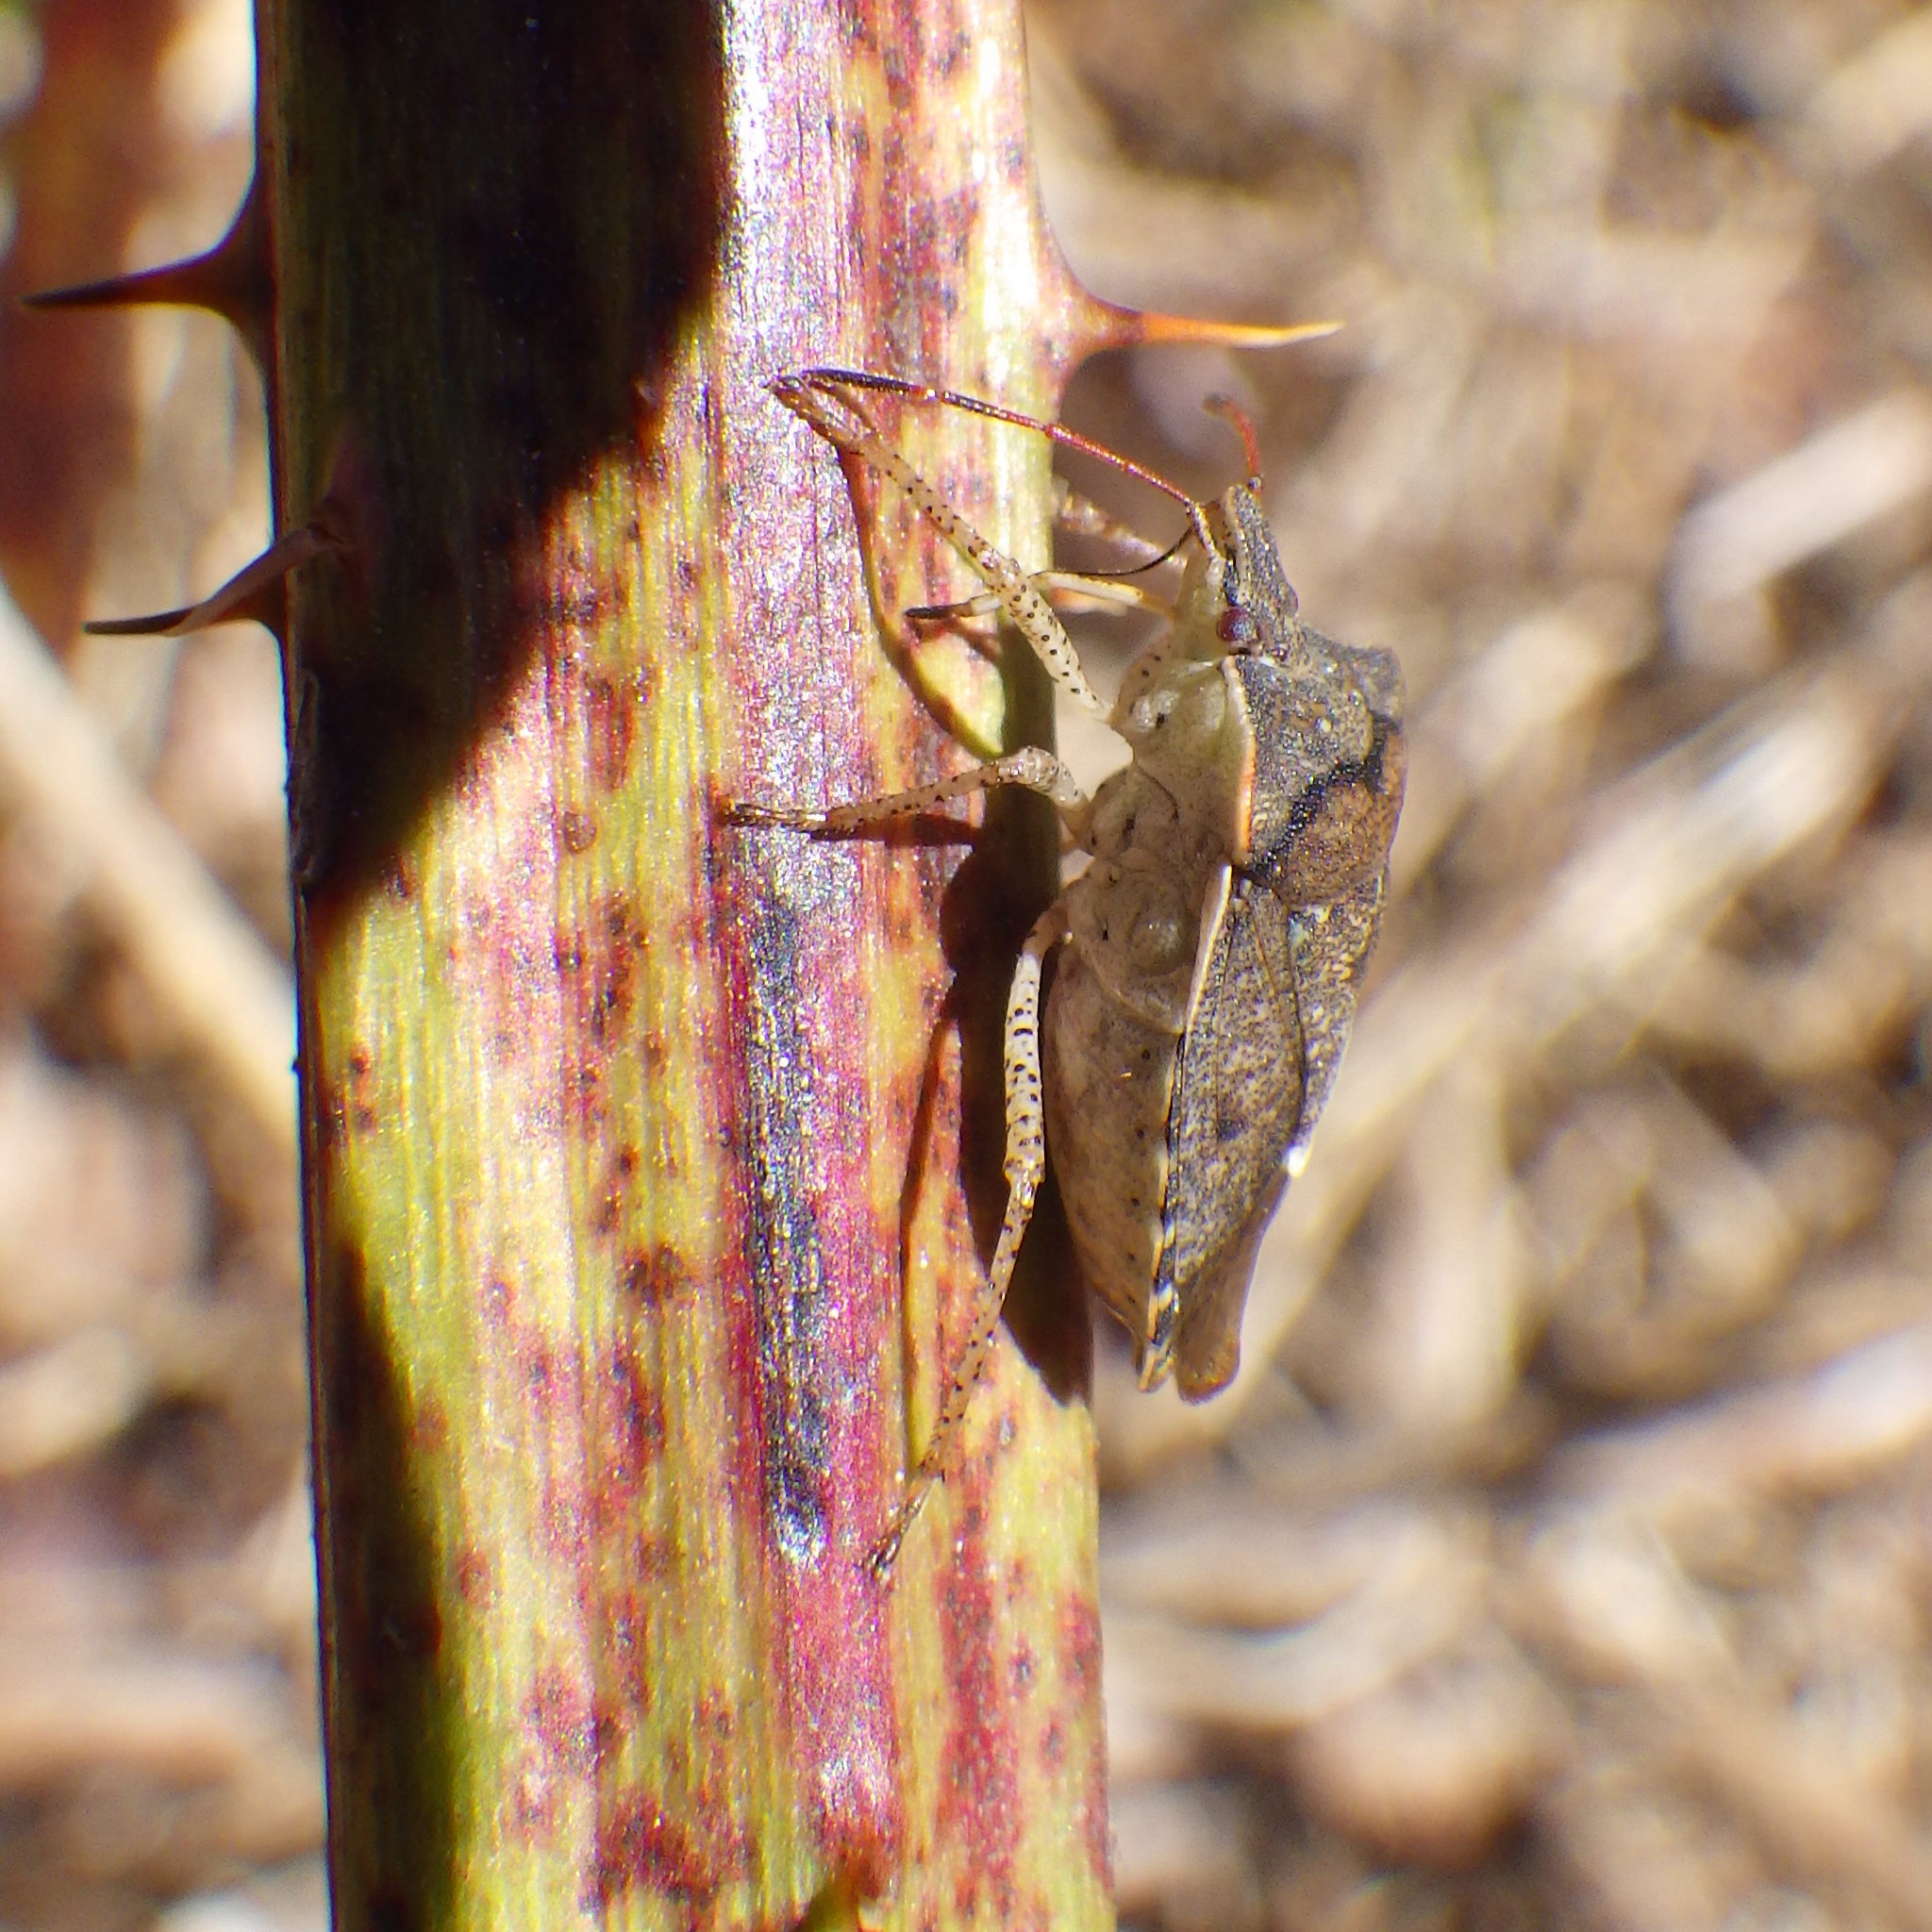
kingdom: Animalia
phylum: Arthropoda
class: Insecta
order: Hemiptera
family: Pentatomidae
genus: Euschistus
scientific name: Euschistus tristigmus
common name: Dusky stink bug
